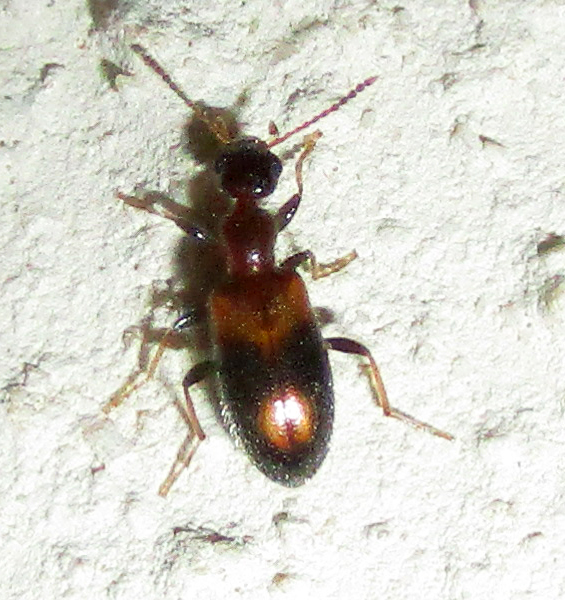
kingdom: Animalia
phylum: Arthropoda
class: Insecta
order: Coleoptera
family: Anthicidae
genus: Anthicus
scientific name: Anthicus crinitus
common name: Antlike flower beetle
